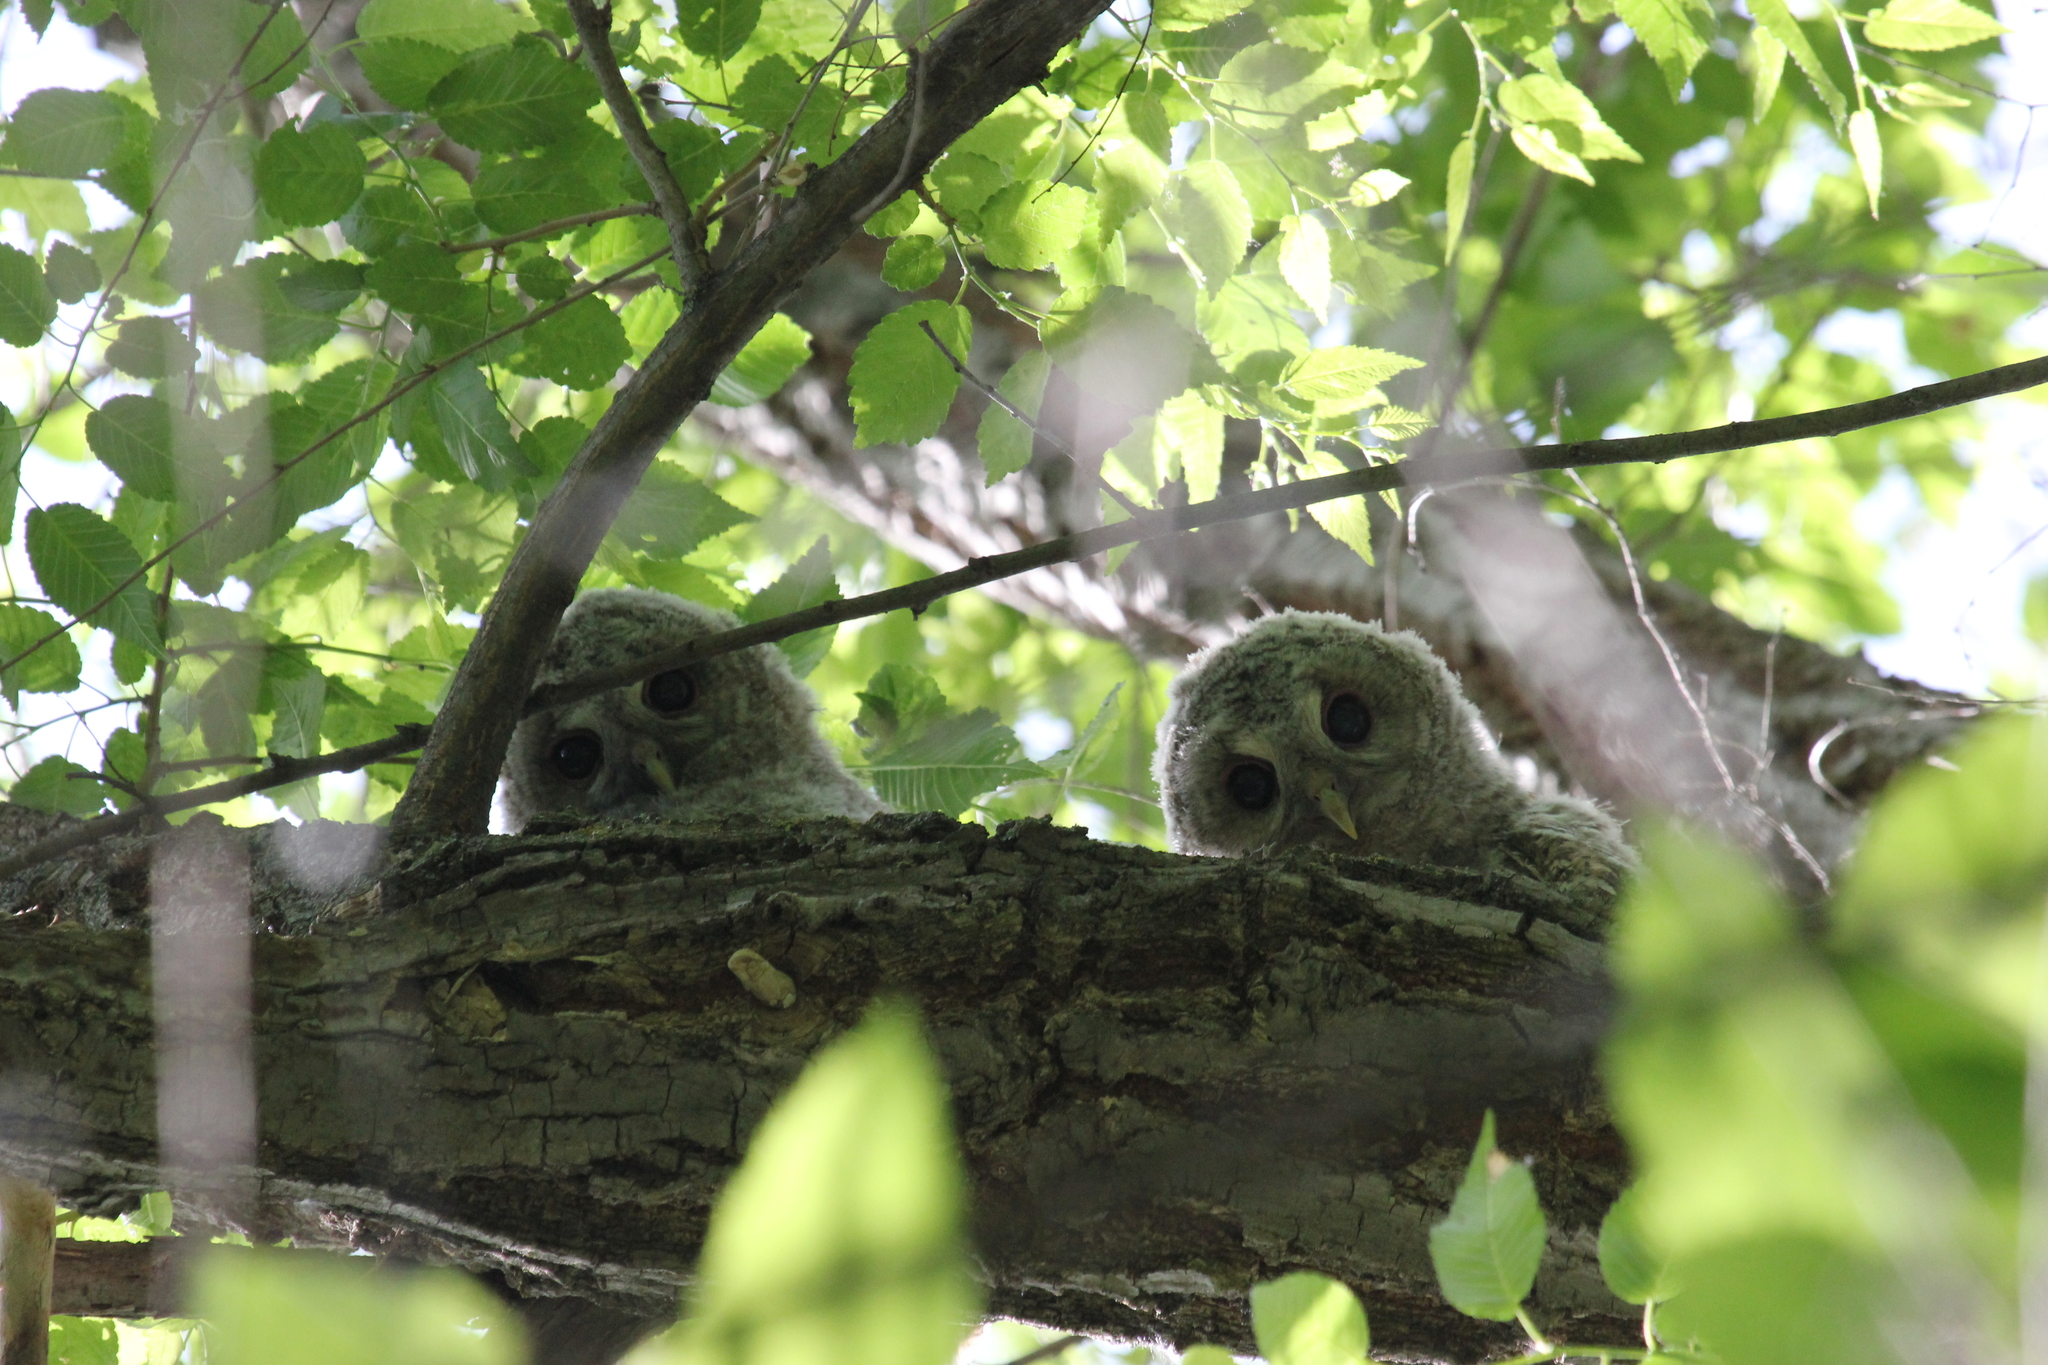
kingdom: Animalia
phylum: Chordata
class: Aves
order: Strigiformes
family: Strigidae
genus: Strix
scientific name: Strix aluco
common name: Tawny owl
